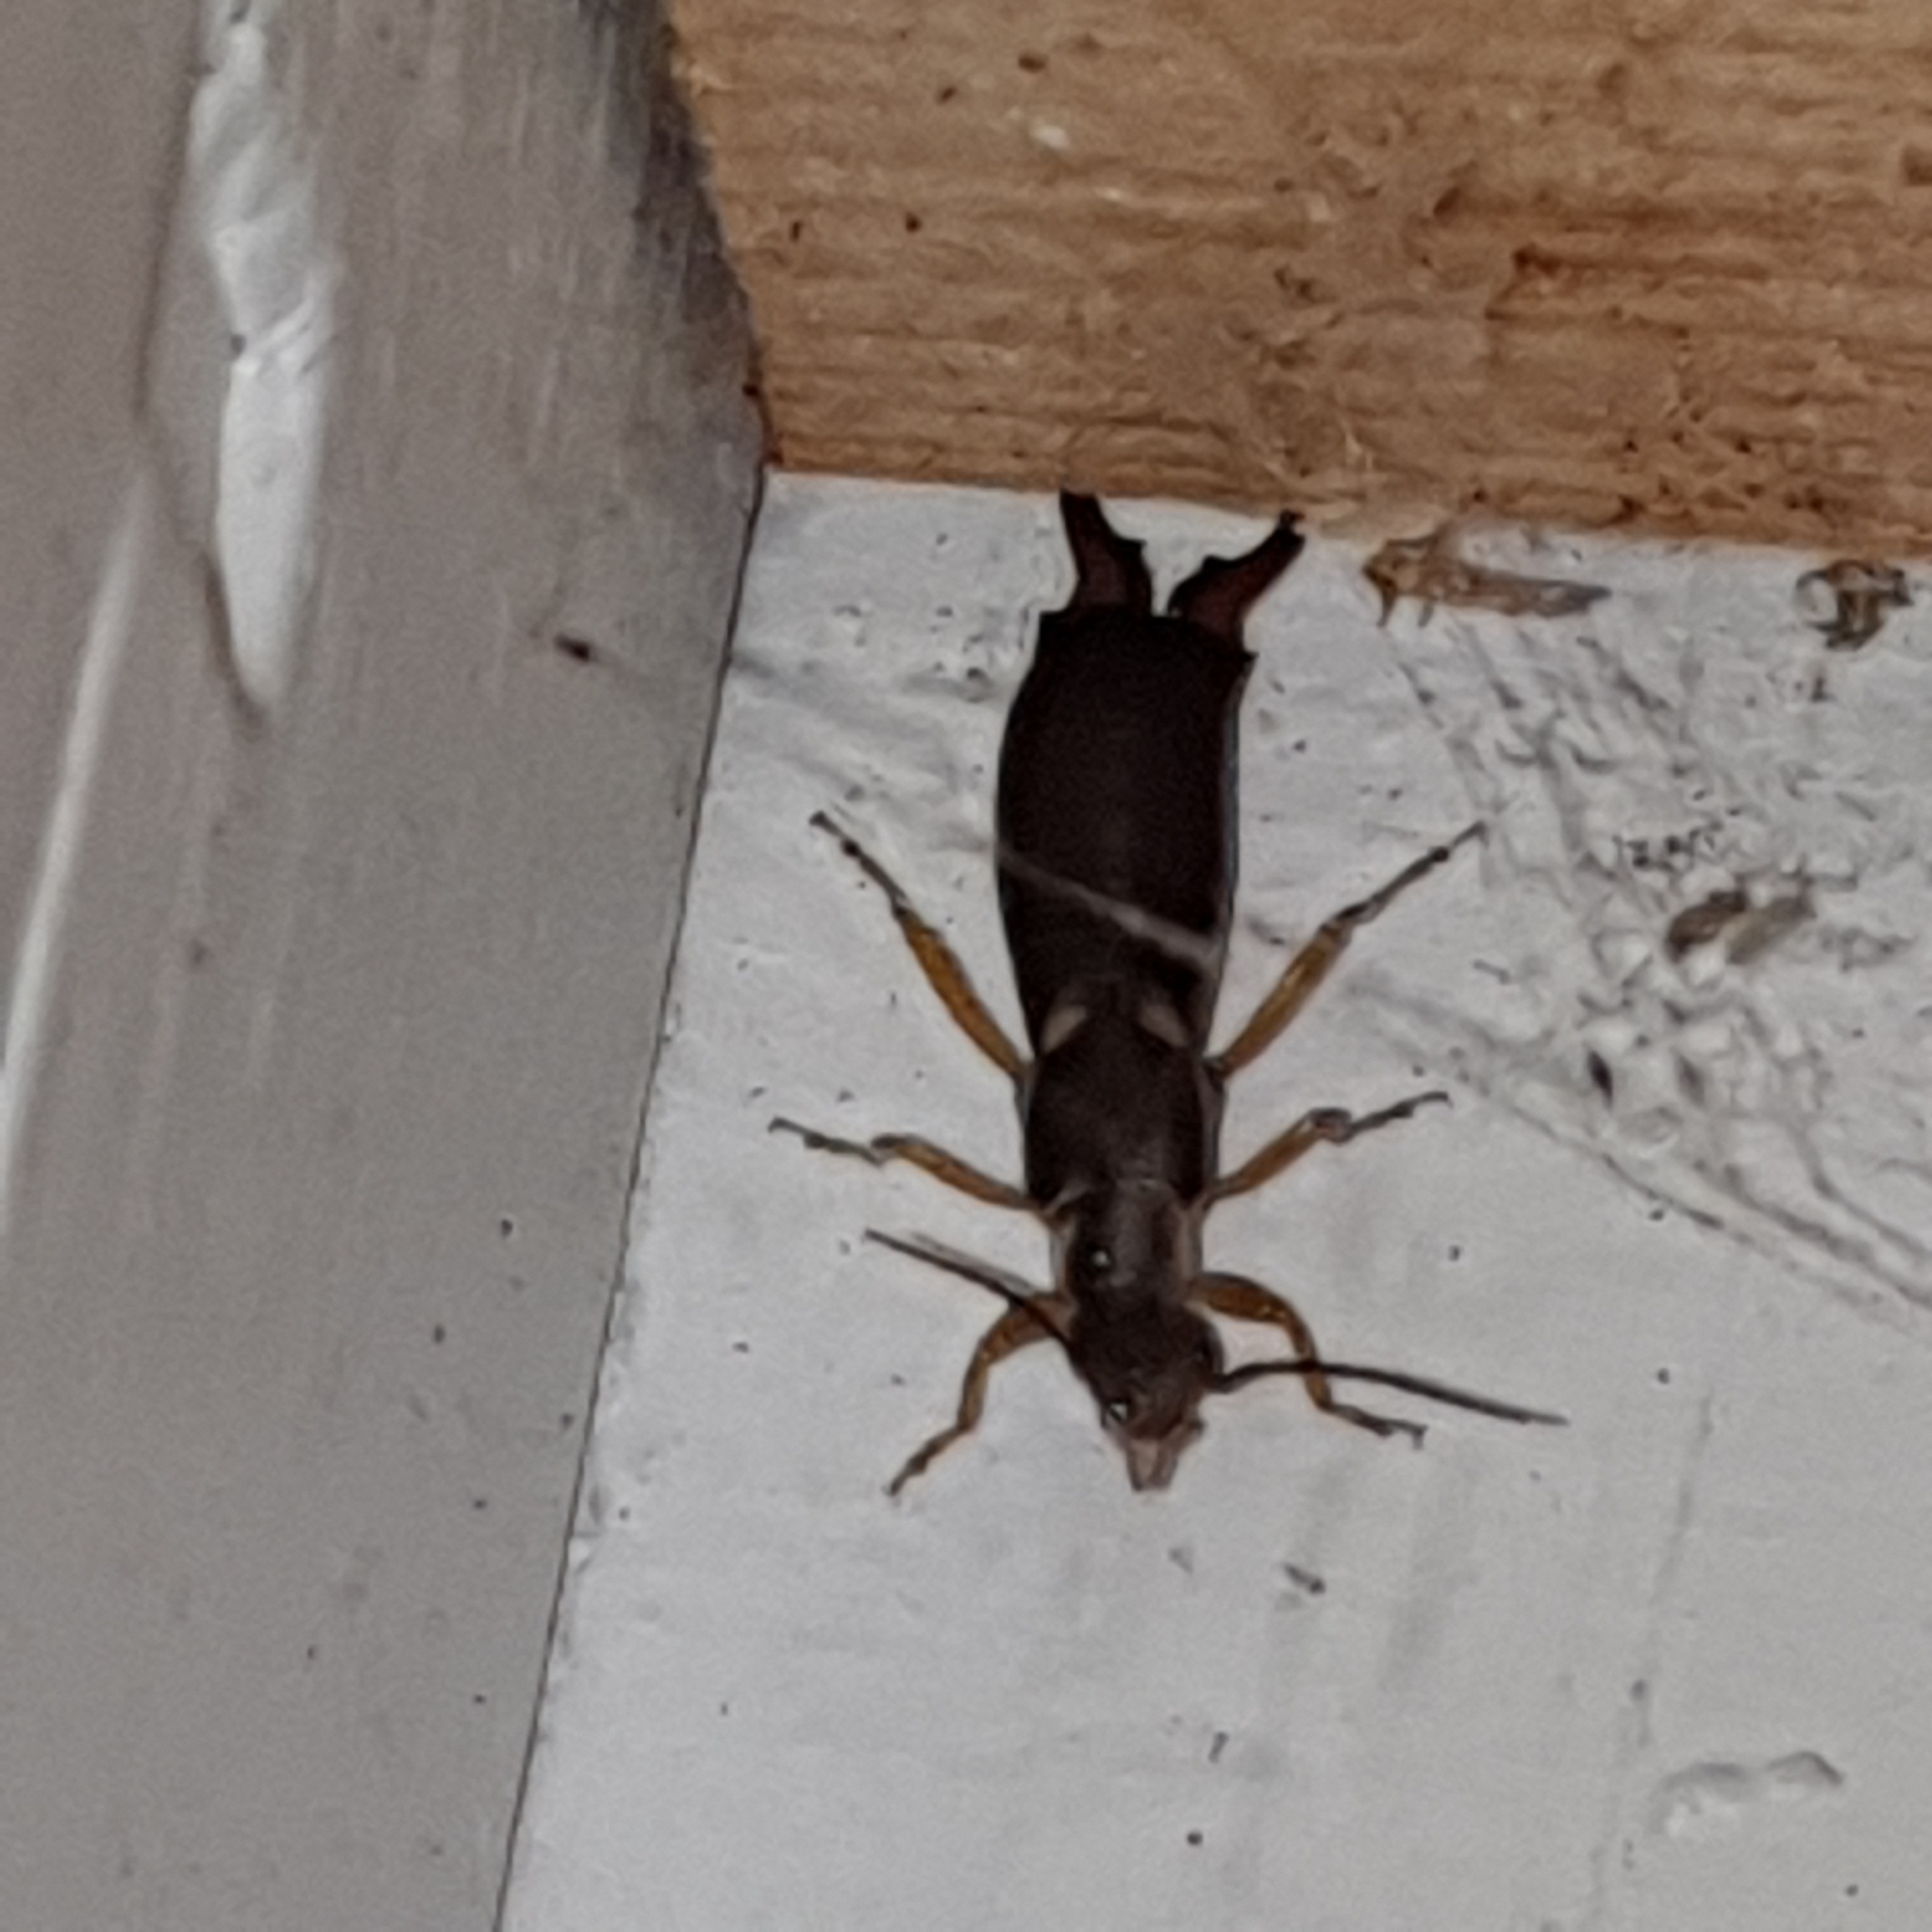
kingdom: Animalia
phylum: Arthropoda
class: Insecta
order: Dermaptera
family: Forficulidae
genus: Forficula
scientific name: Forficula
